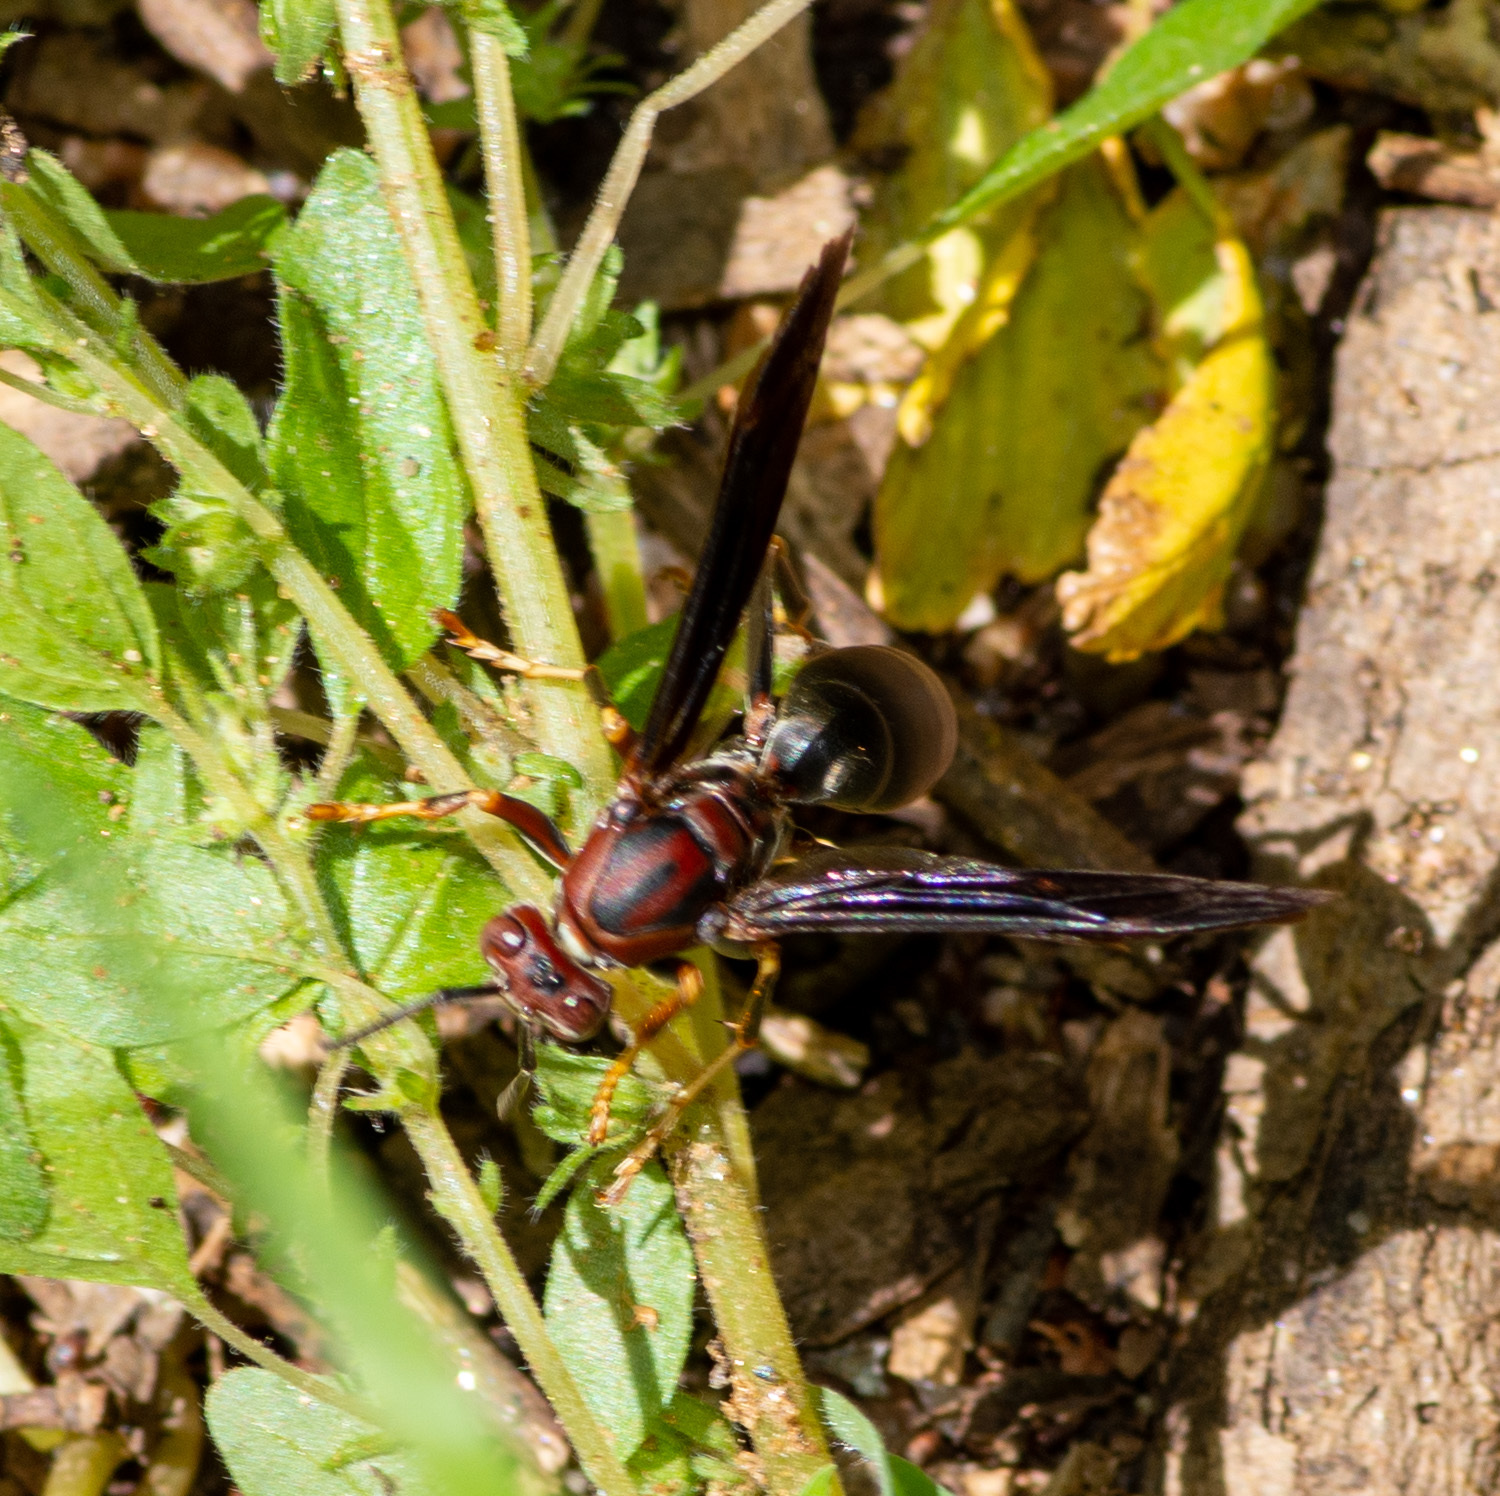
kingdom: Animalia
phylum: Arthropoda
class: Insecta
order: Hymenoptera
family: Eumenidae
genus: Polistes
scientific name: Polistes metricus
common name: Metric paper wasp
